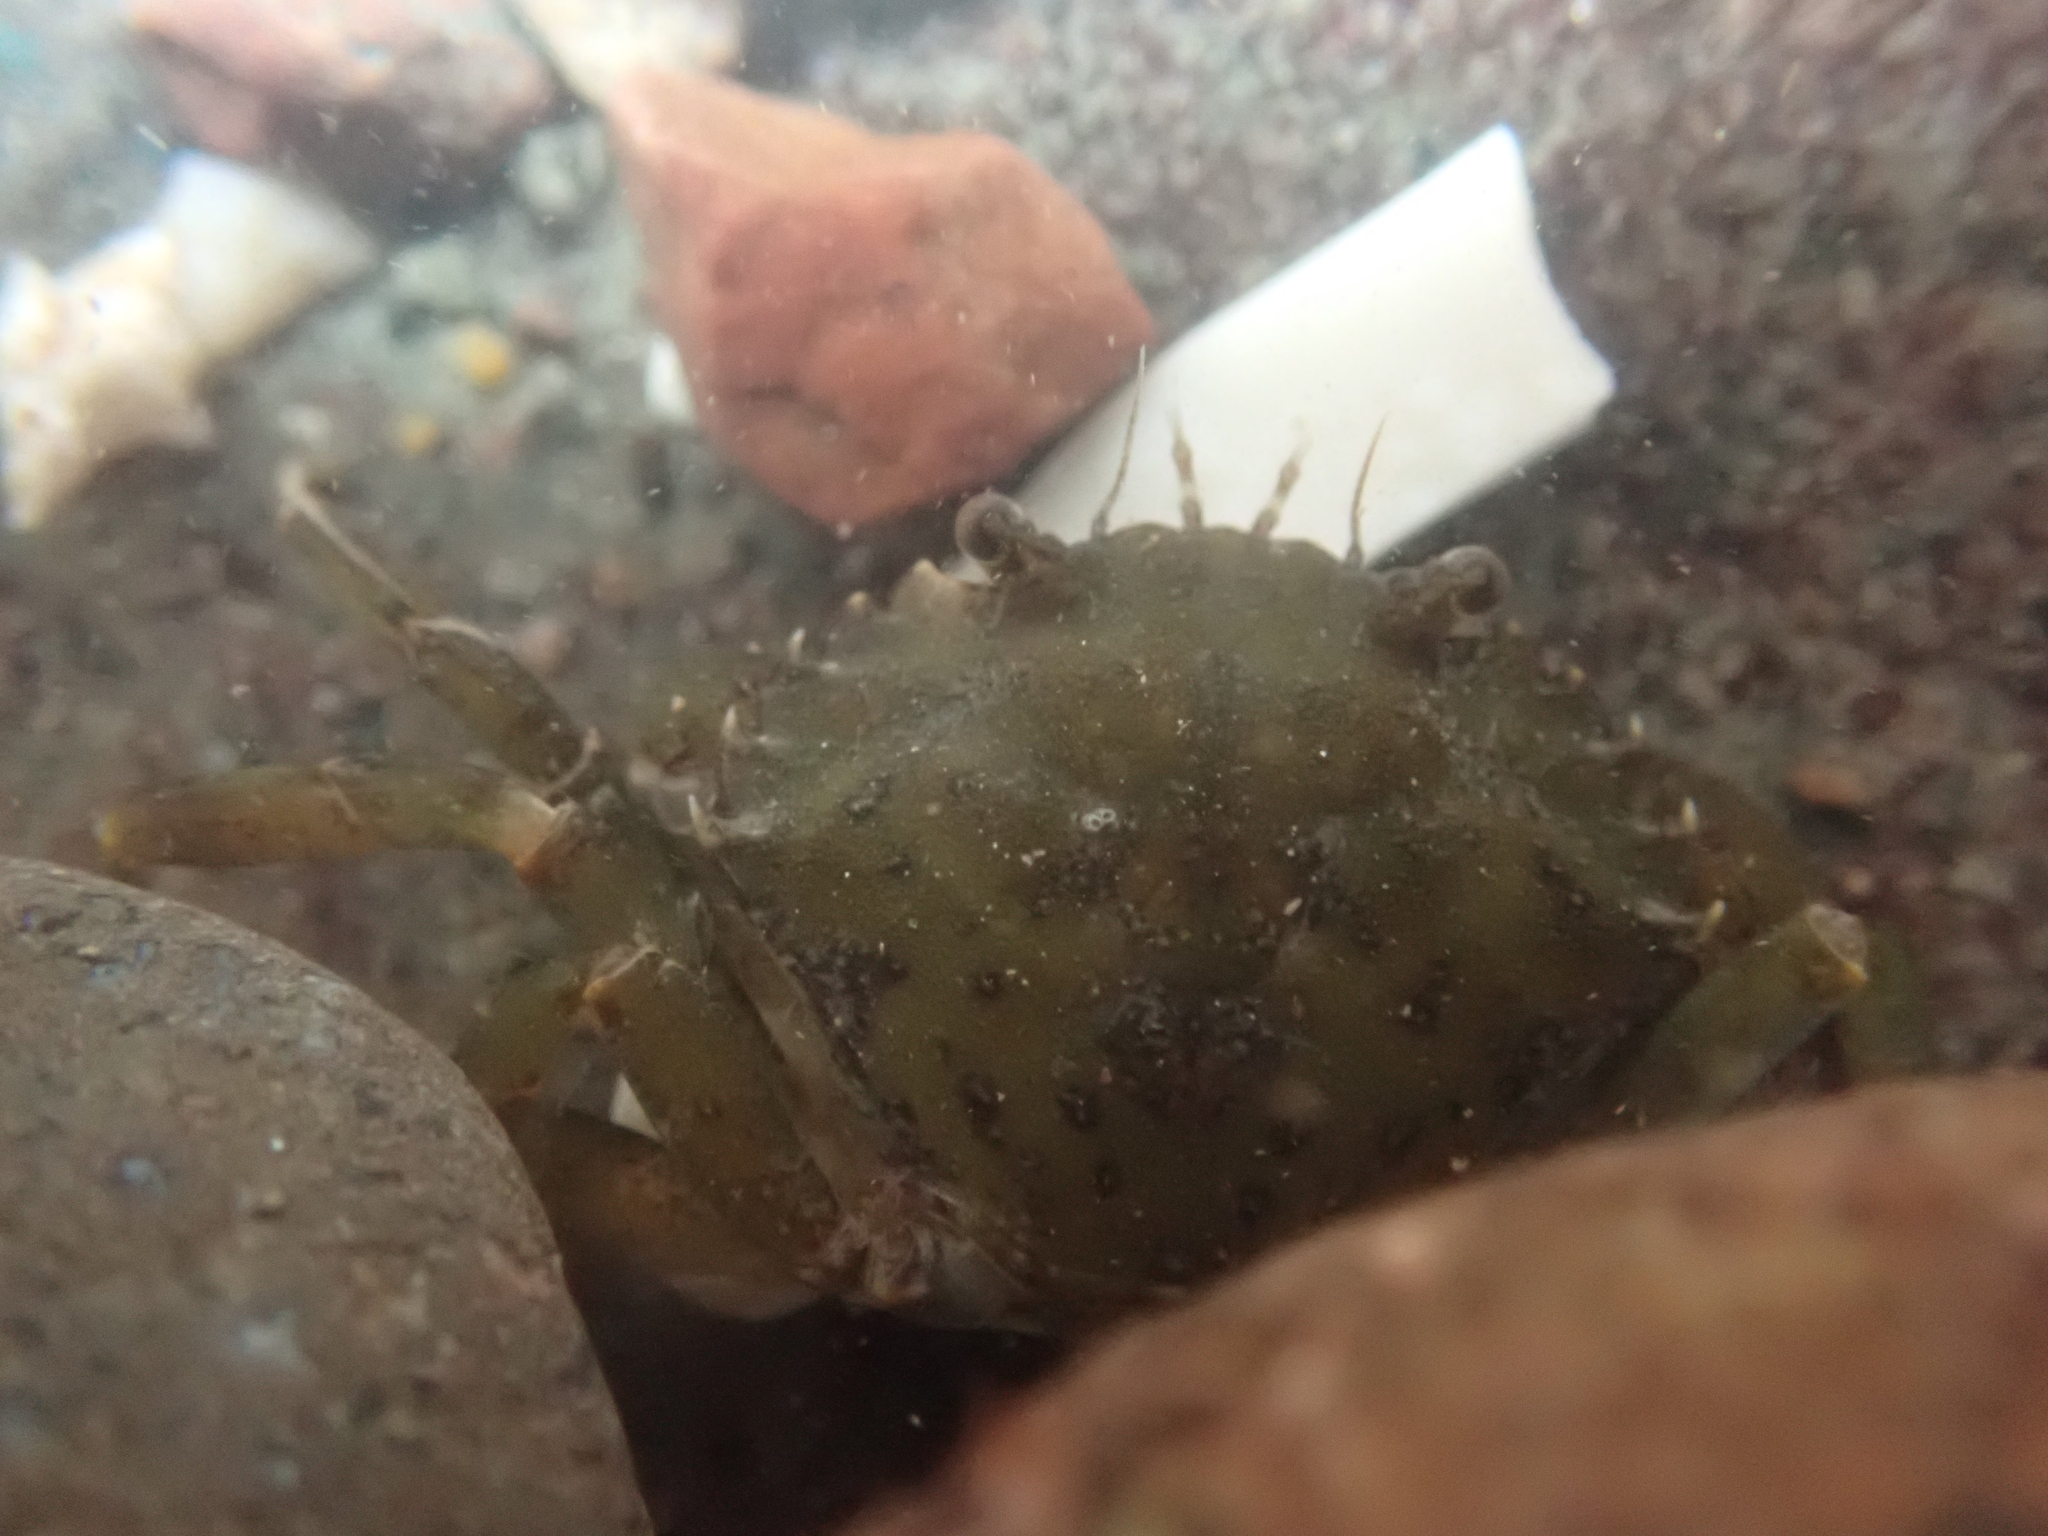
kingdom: Animalia
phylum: Arthropoda
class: Malacostraca
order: Decapoda
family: Carcinidae
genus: Carcinus
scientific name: Carcinus maenas
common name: European green crab
